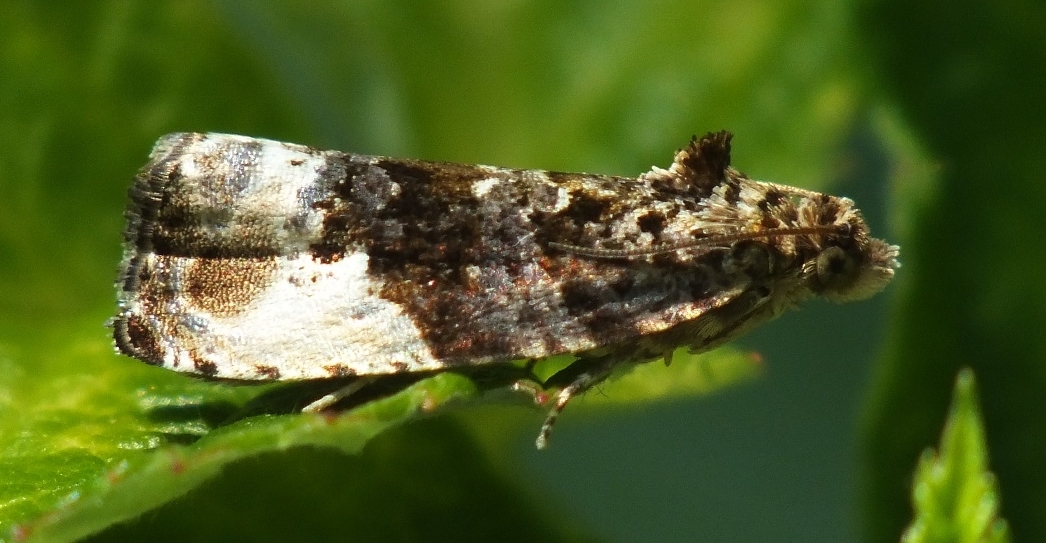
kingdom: Animalia
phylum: Arthropoda
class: Insecta
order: Lepidoptera
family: Tortricidae
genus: Hedya
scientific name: Hedya nubiferana
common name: Marbled orchard tortrix
